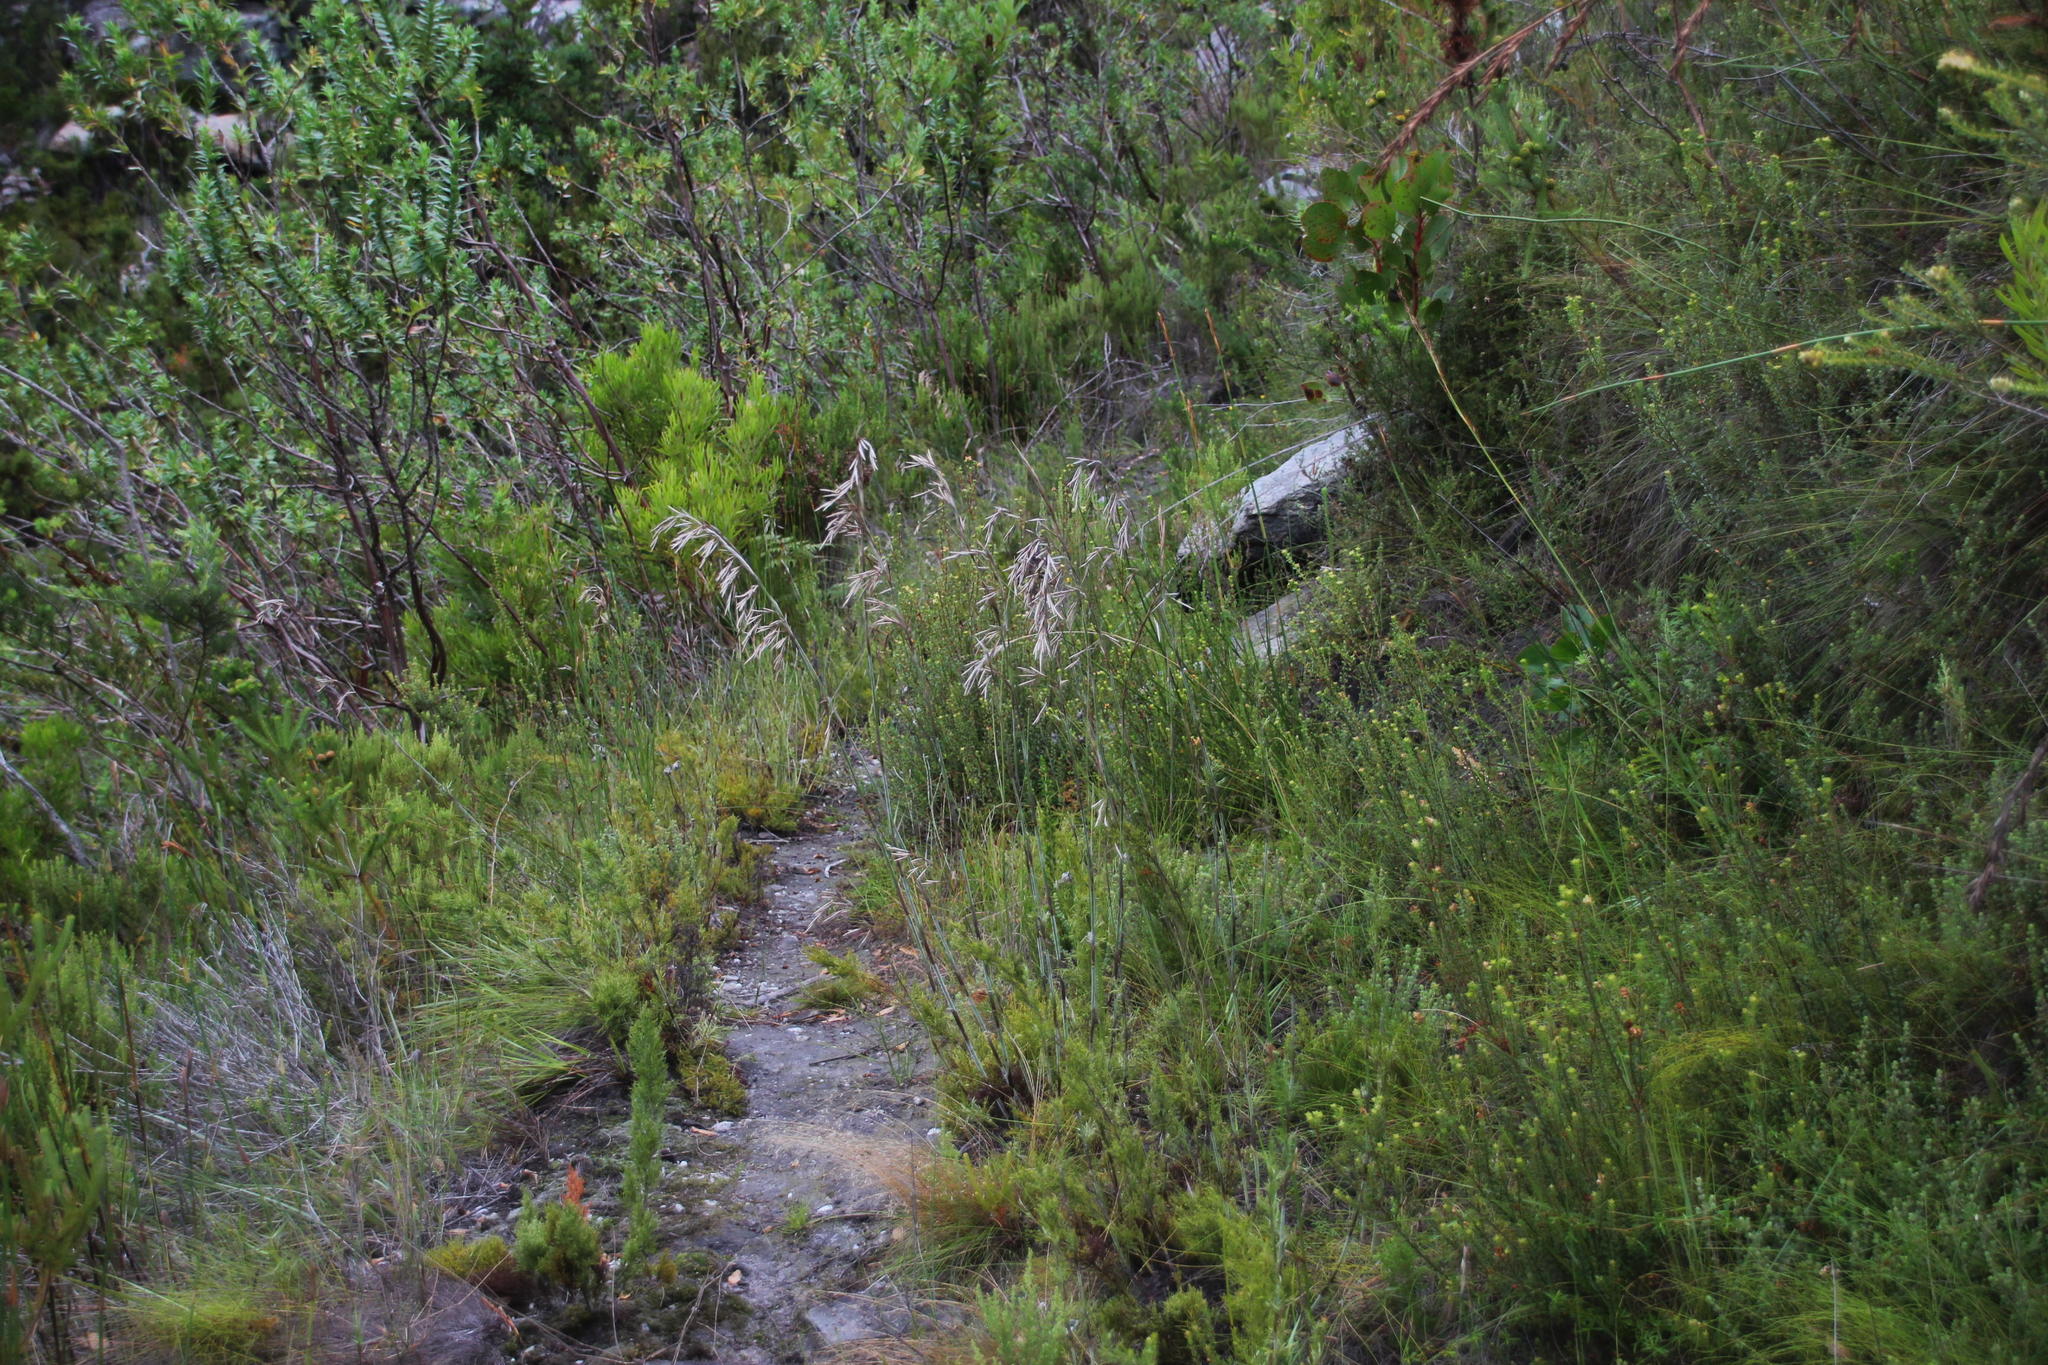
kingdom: Plantae
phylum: Tracheophyta
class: Liliopsida
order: Poales
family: Restionaceae
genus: Thamnochortus
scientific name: Thamnochortus cinereus
